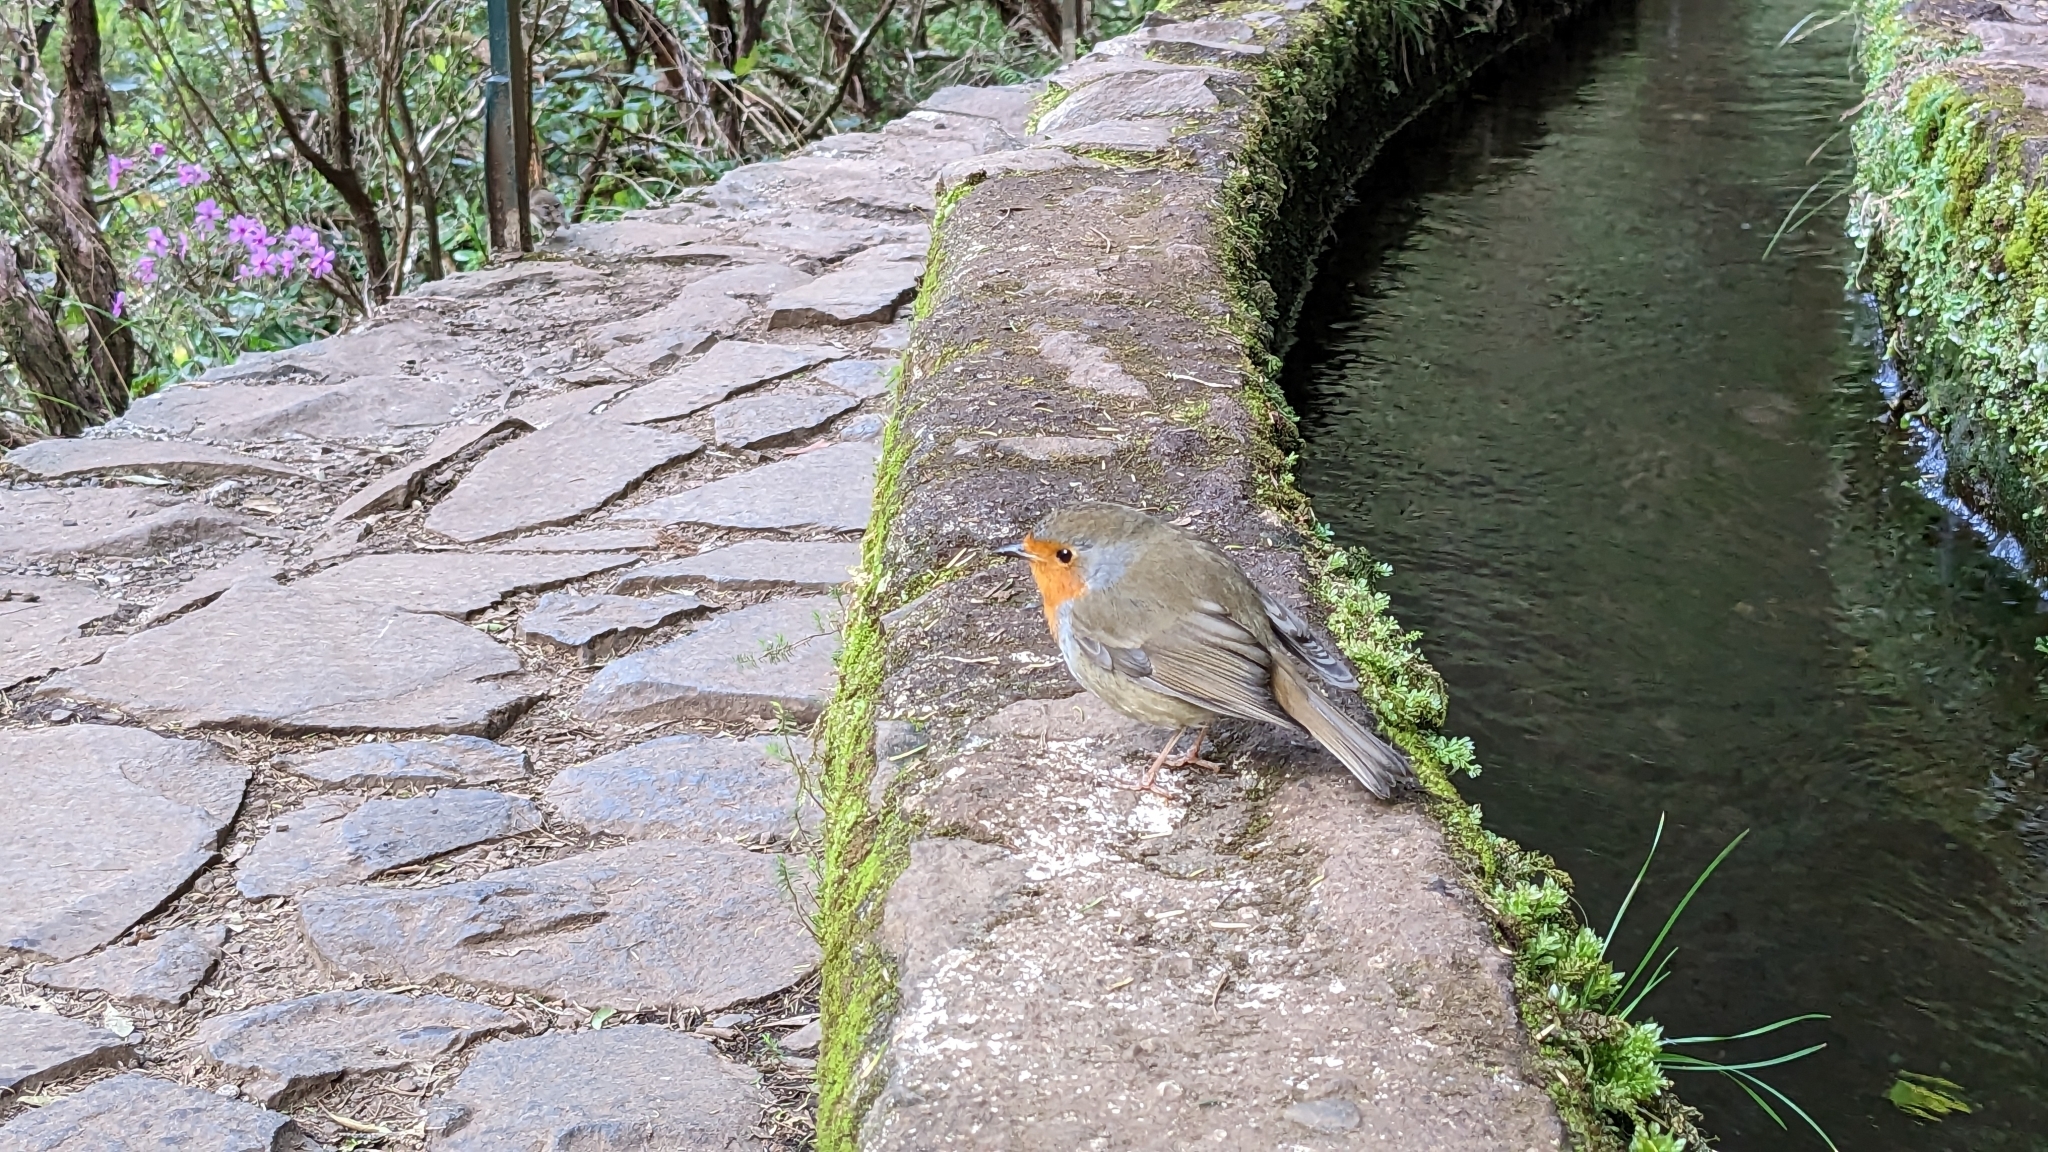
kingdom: Animalia
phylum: Chordata
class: Aves
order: Passeriformes
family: Muscicapidae
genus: Erithacus
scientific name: Erithacus rubecula
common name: European robin
